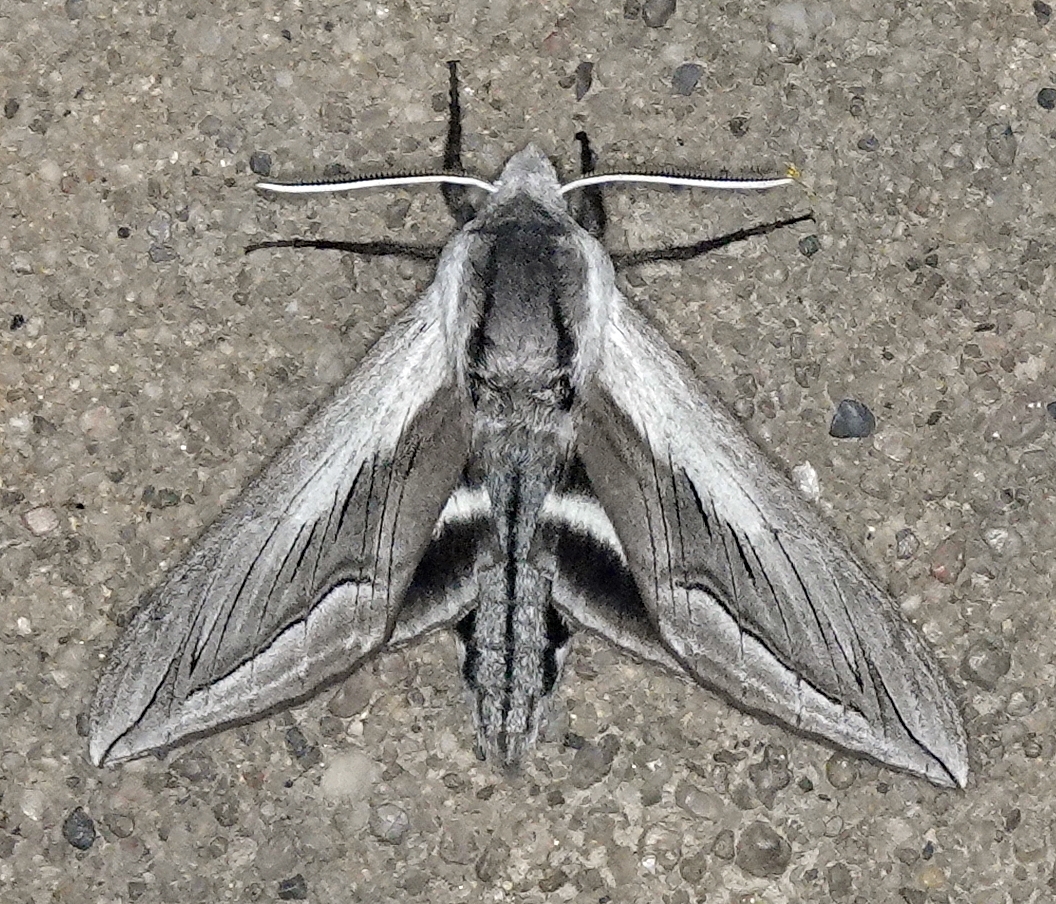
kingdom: Animalia
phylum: Arthropoda
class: Insecta
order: Lepidoptera
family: Sphingidae
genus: Sphinx
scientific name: Sphinx vashti
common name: Snowberry sphinx
